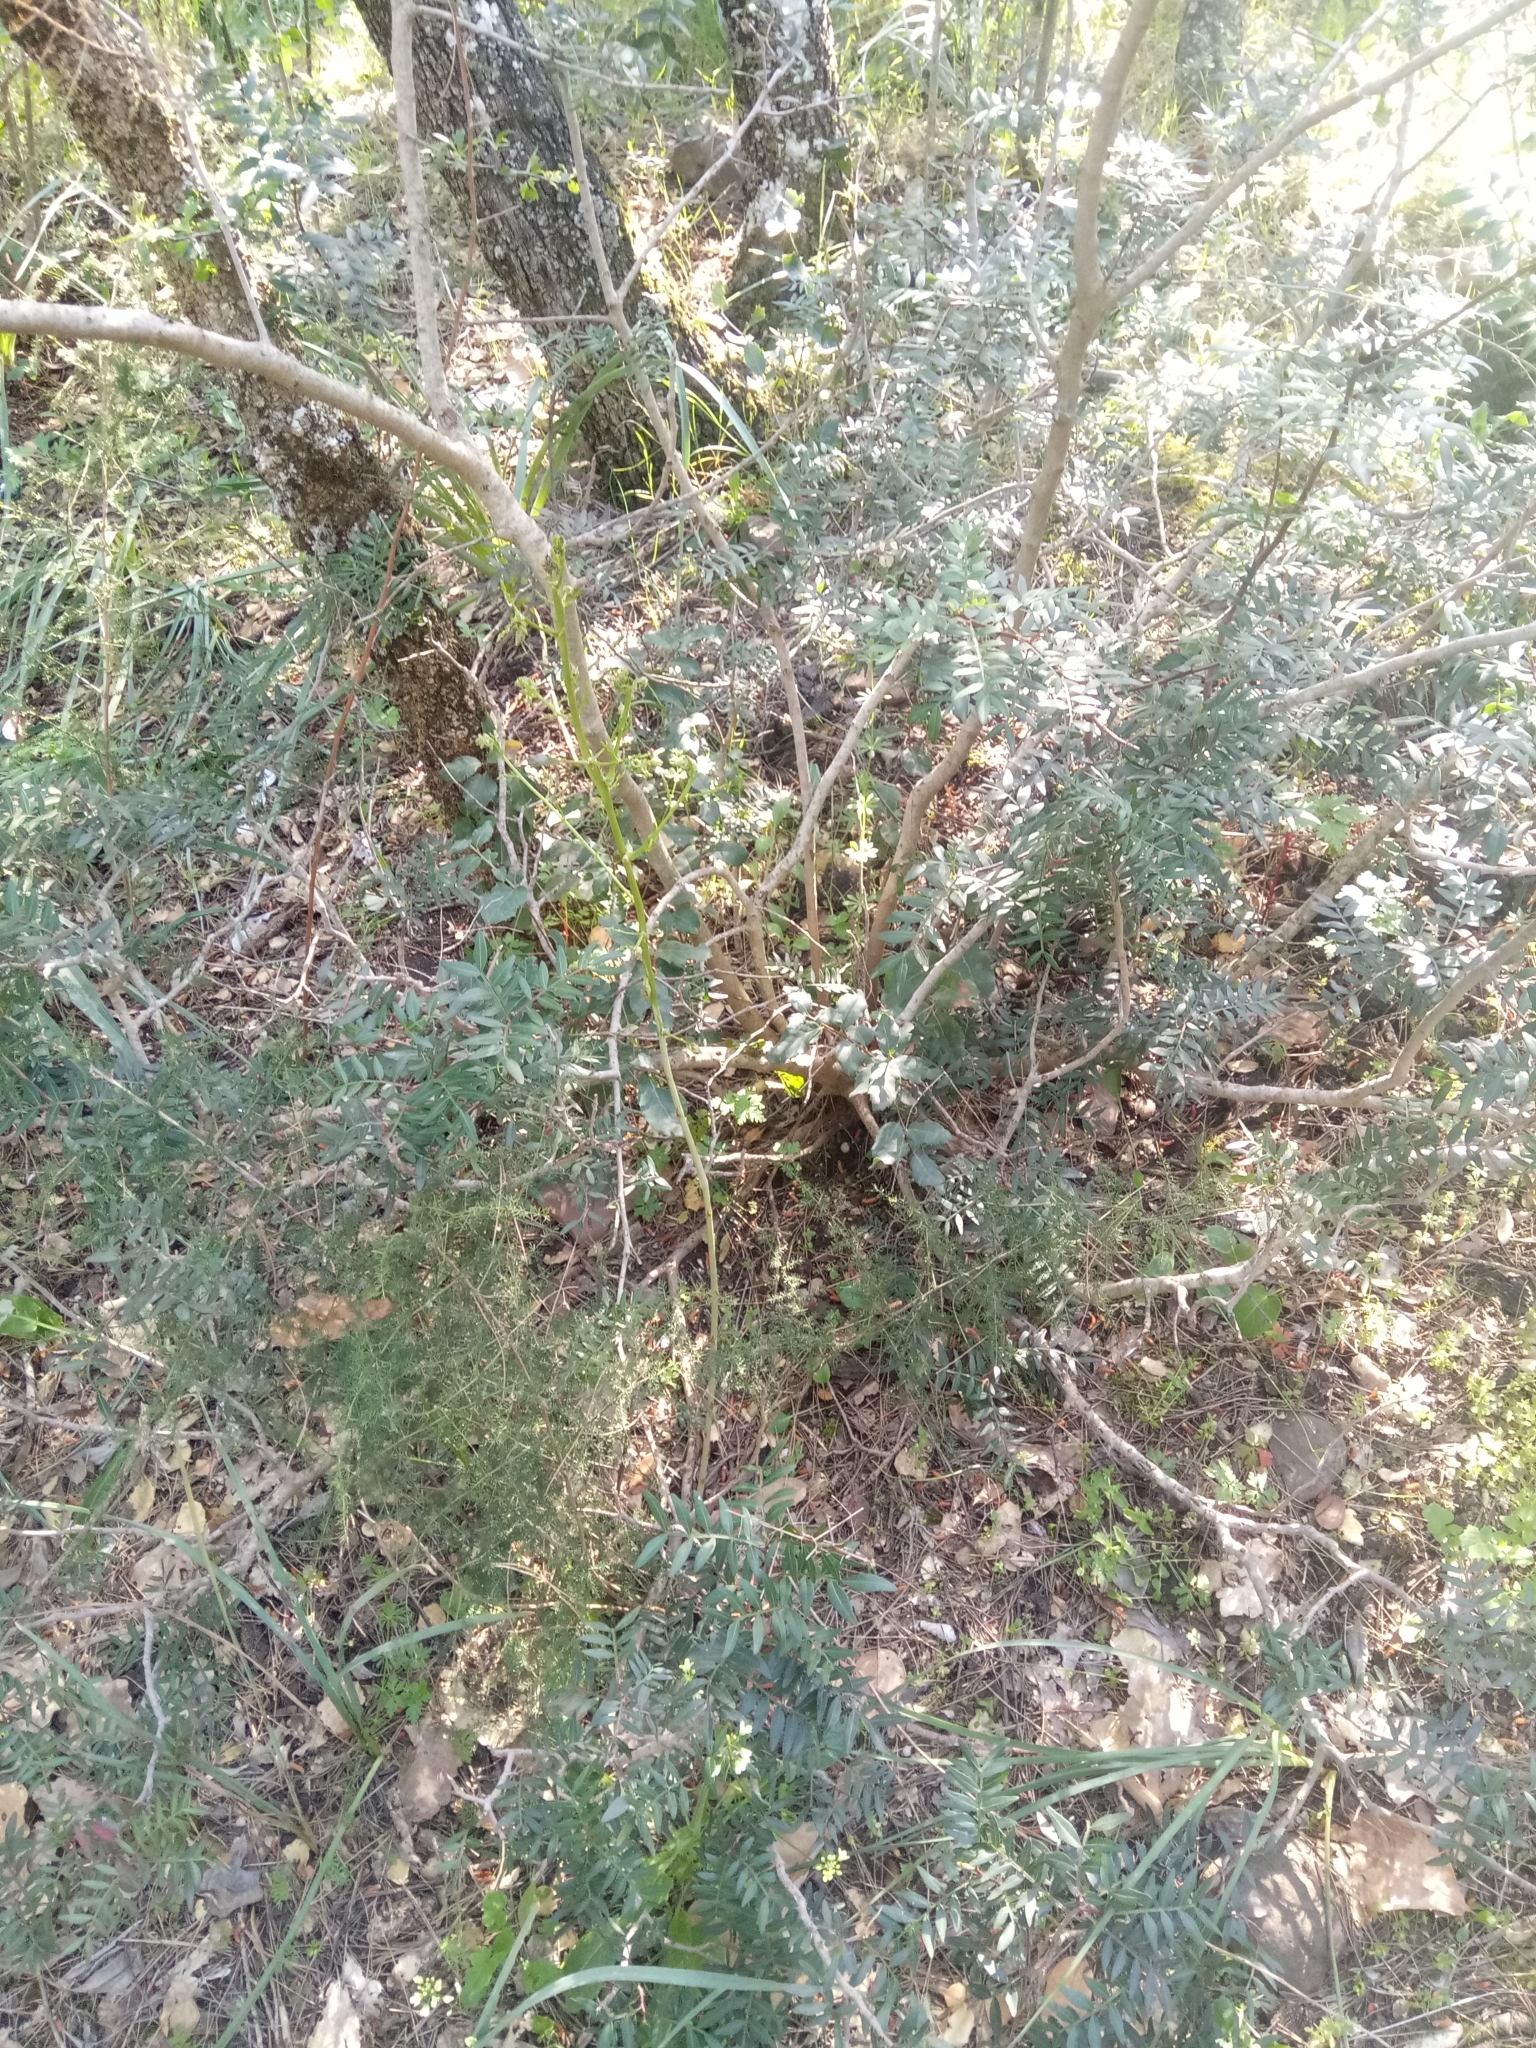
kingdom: Plantae
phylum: Tracheophyta
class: Magnoliopsida
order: Sapindales
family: Anacardiaceae
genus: Pistacia
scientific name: Pistacia lentiscus
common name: Lentisk
